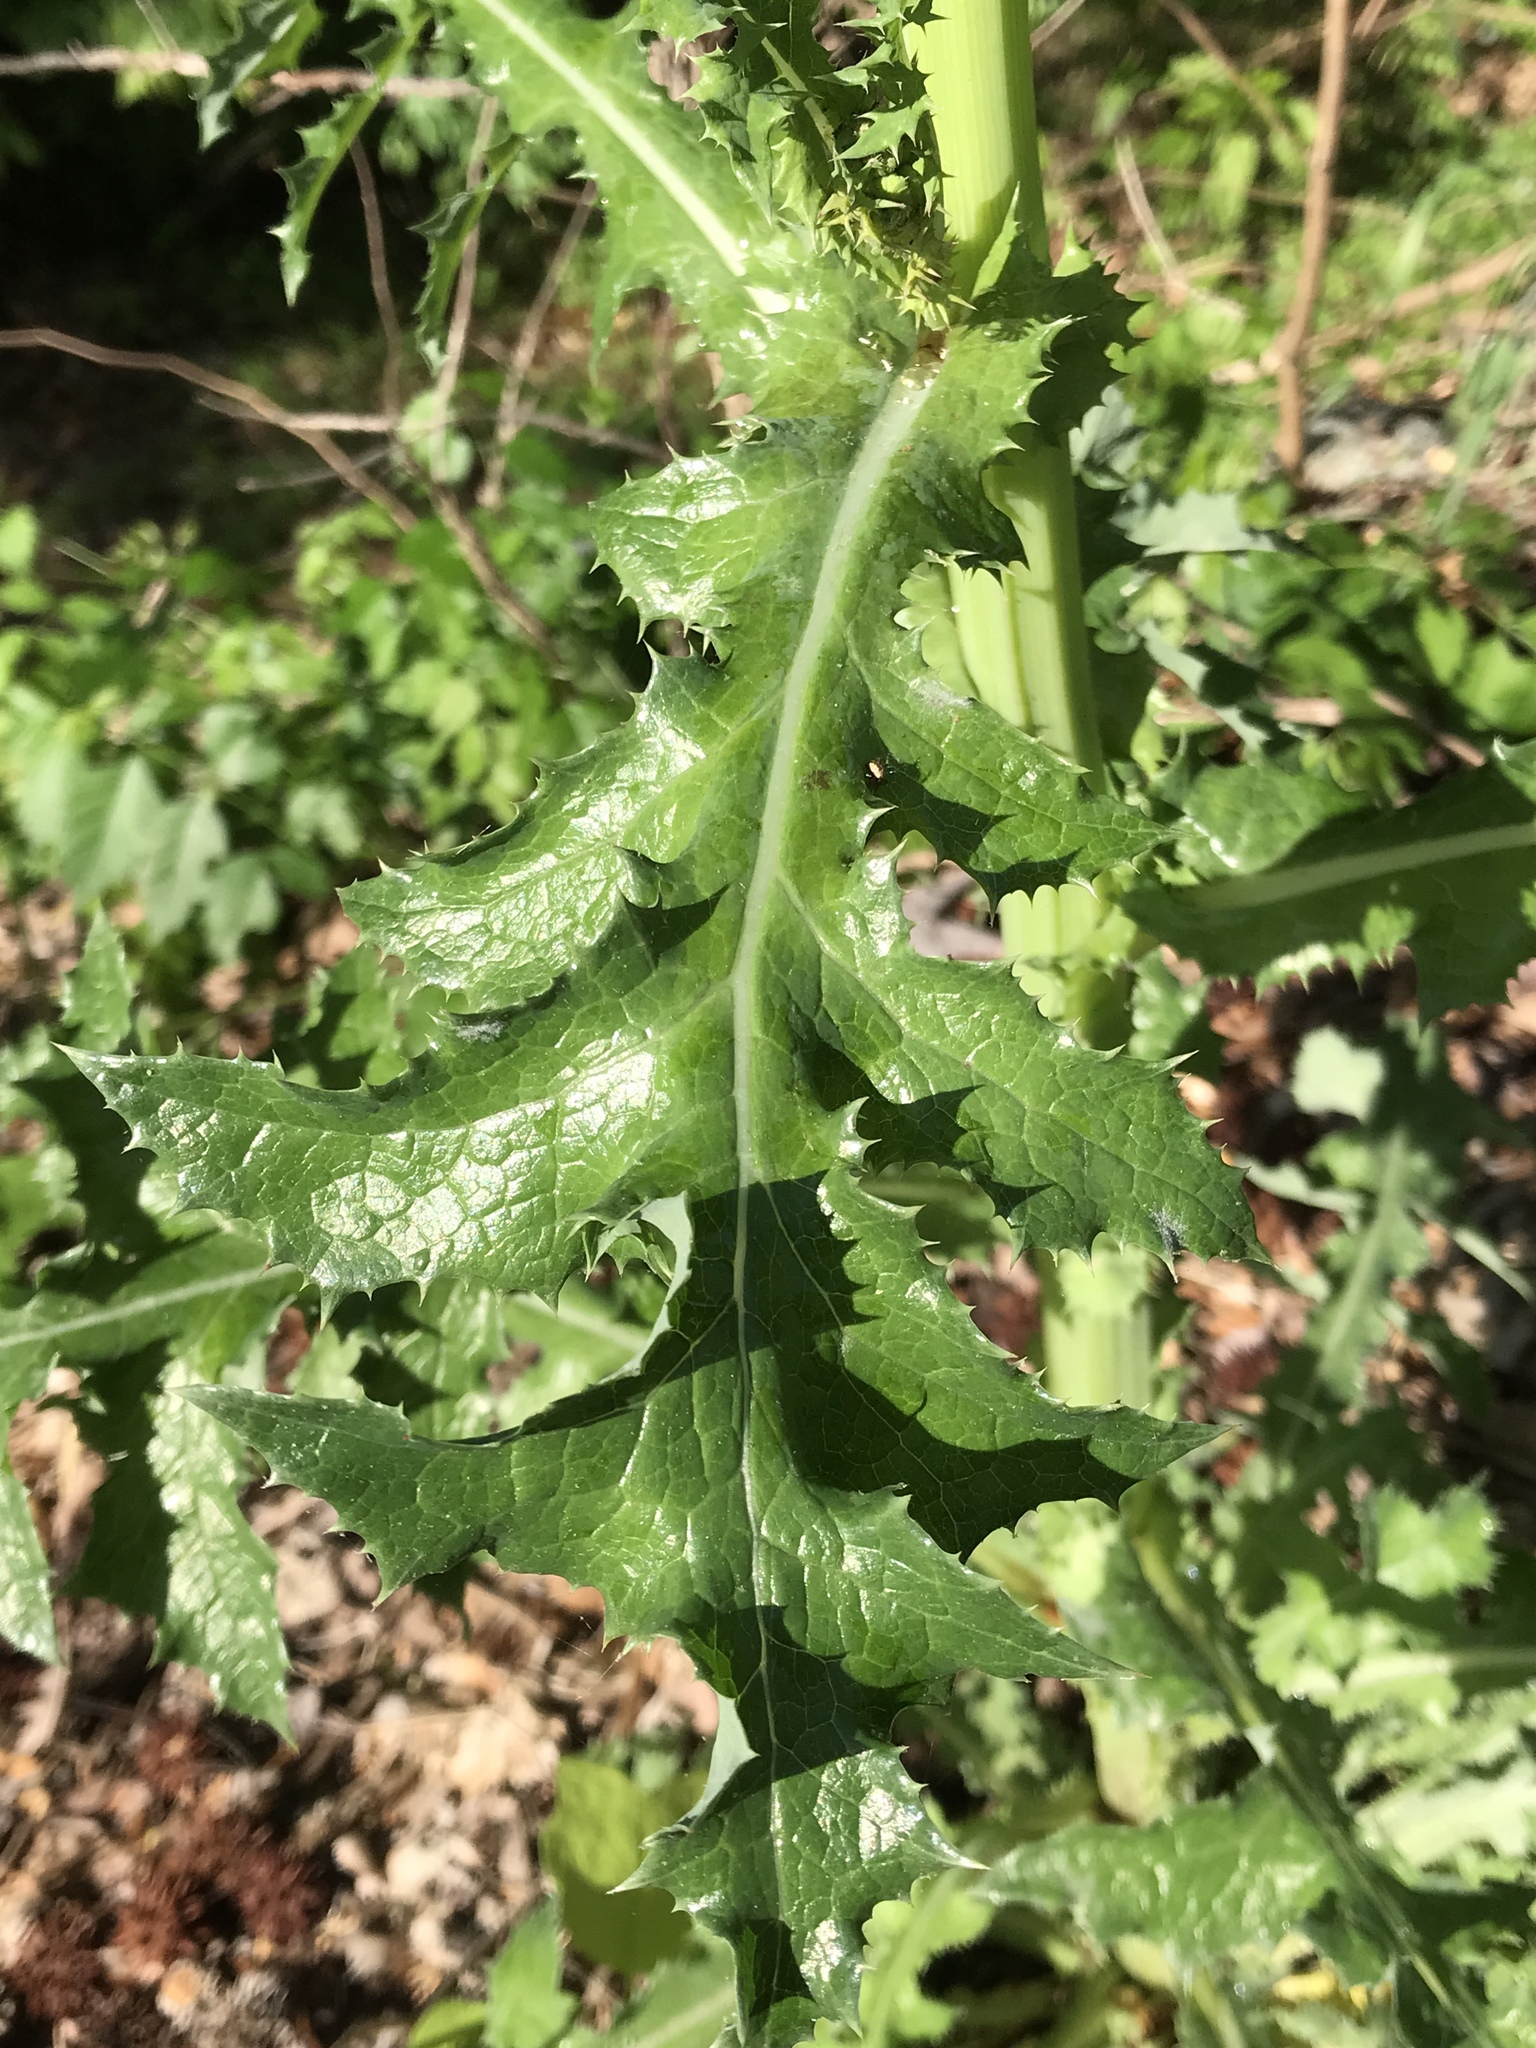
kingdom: Plantae
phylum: Tracheophyta
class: Magnoliopsida
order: Asterales
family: Asteraceae
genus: Sonchus
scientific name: Sonchus asper
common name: Prickly sow-thistle
